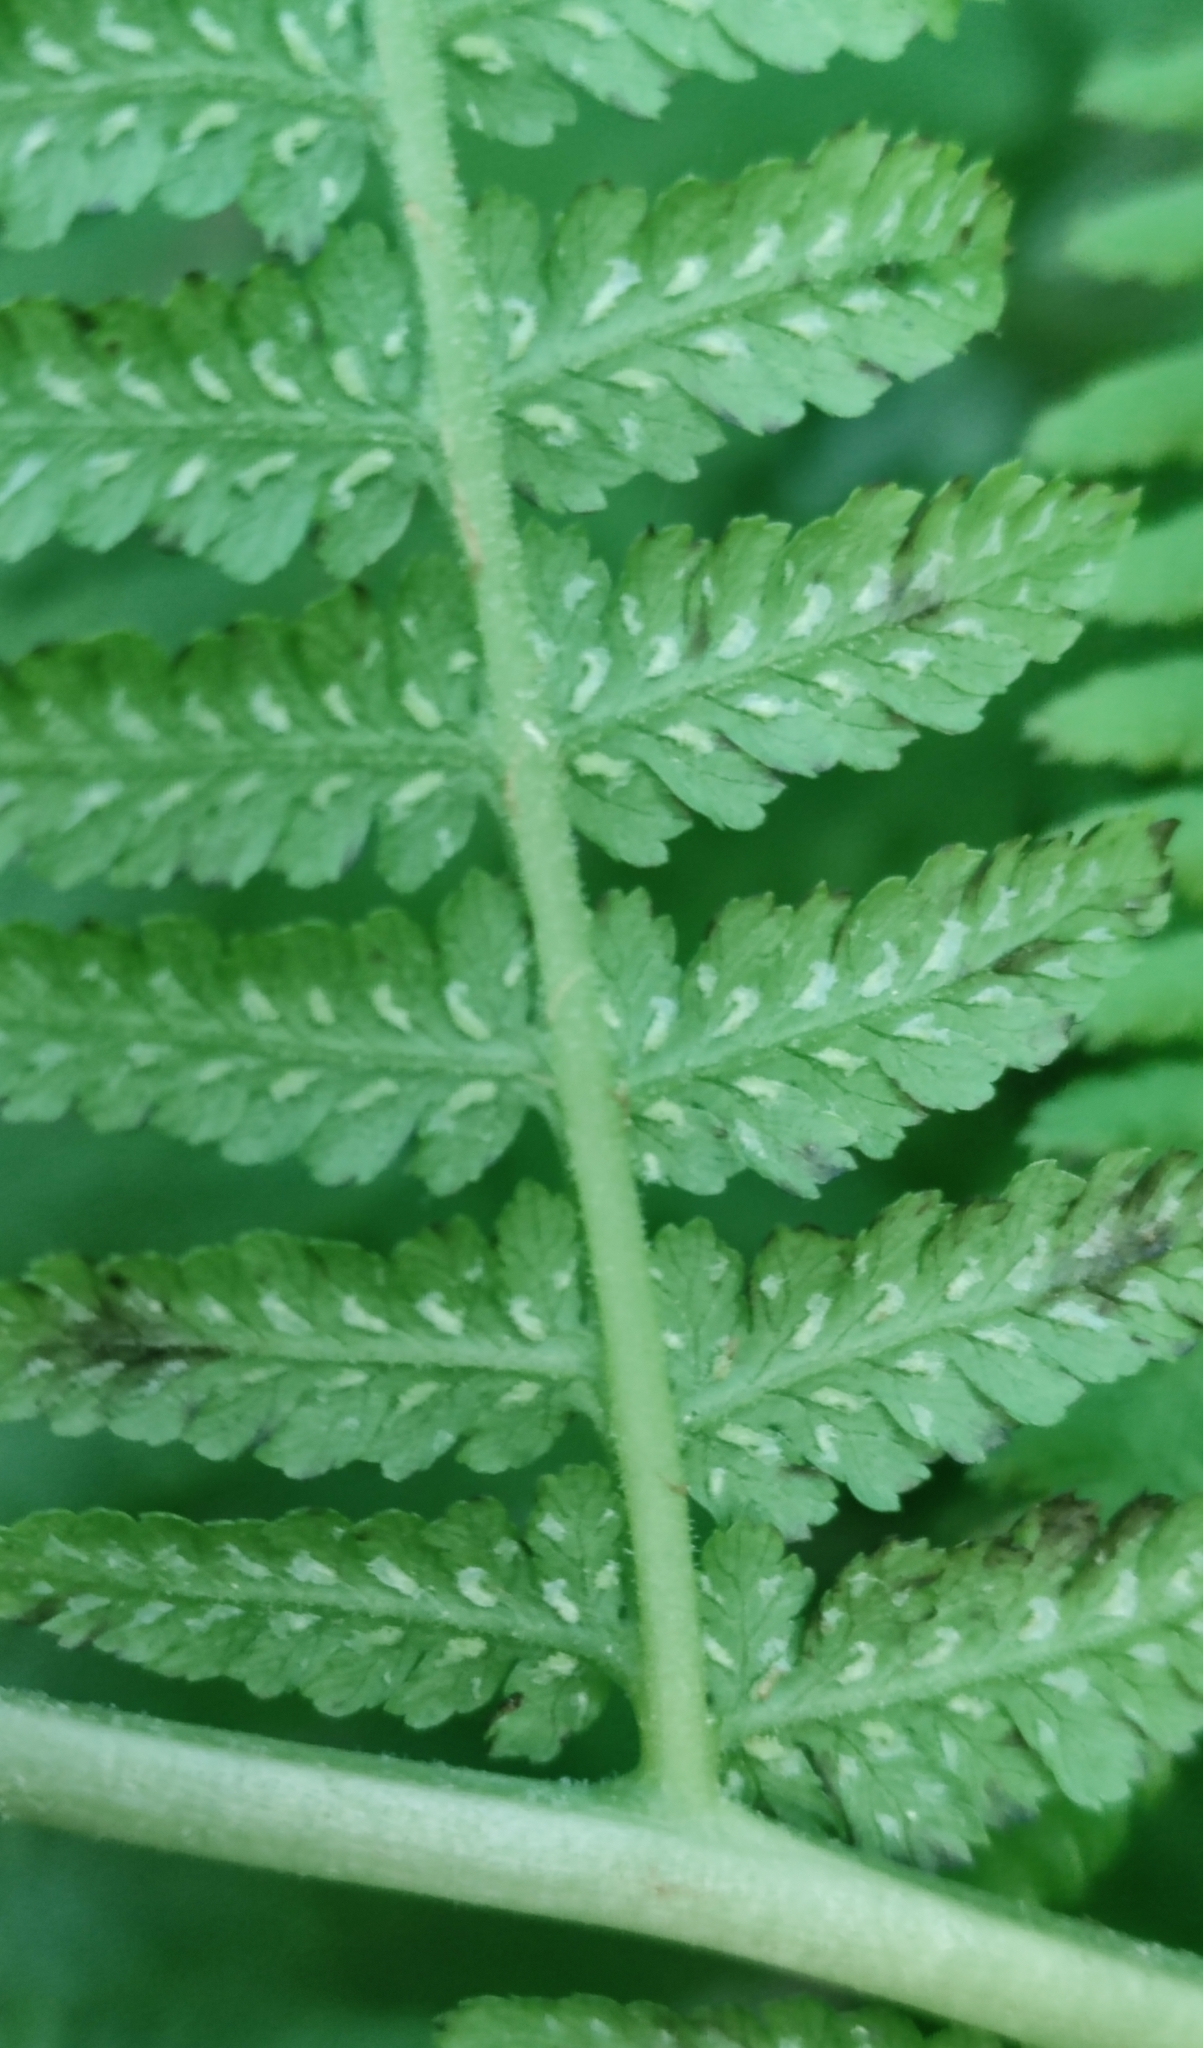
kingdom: Plantae
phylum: Tracheophyta
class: Polypodiopsida
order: Polypodiales
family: Athyriaceae
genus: Athyrium
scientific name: Athyrium filix-femina
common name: Lady fern
